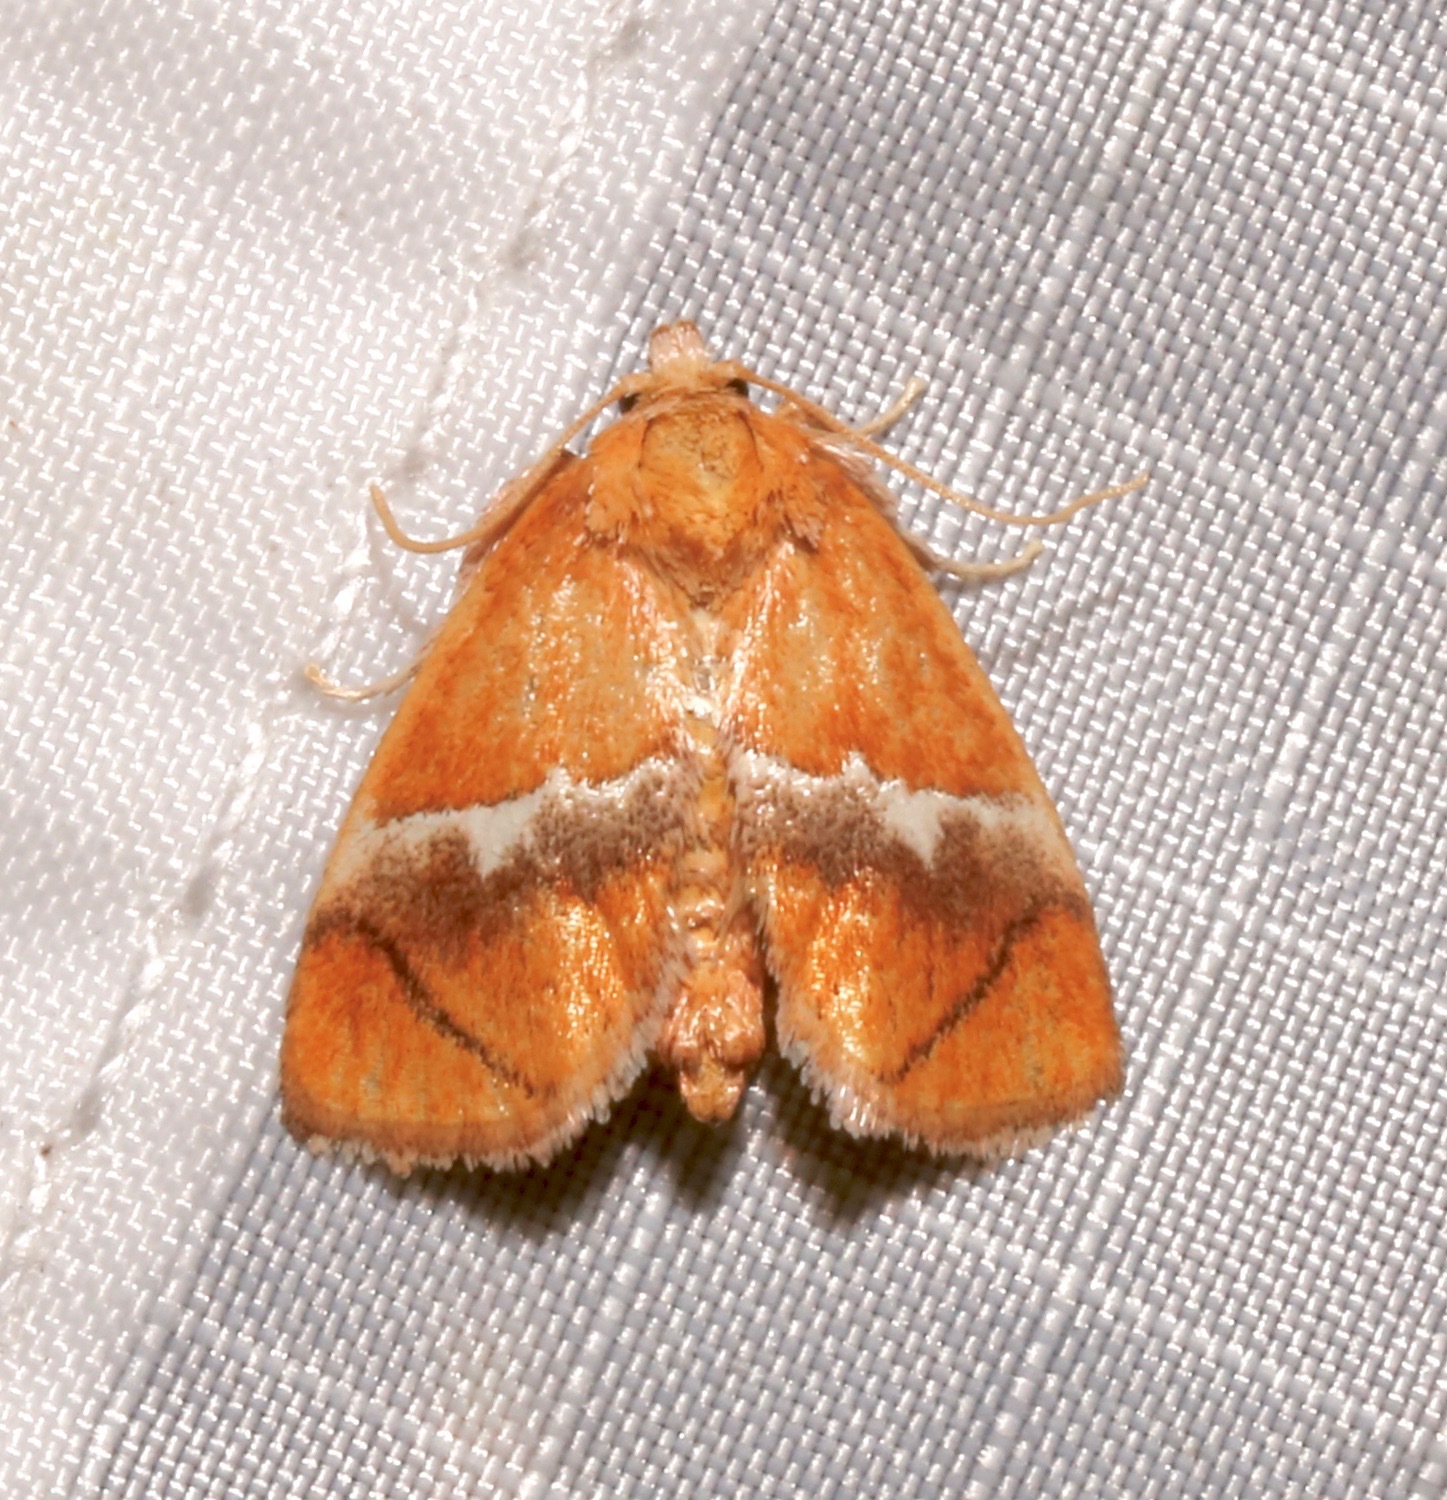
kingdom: Animalia
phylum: Arthropoda
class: Insecta
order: Lepidoptera
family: Limacodidae
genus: Lithacodes
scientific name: Lithacodes fasciola
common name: Yellow-shouldered slug moth
